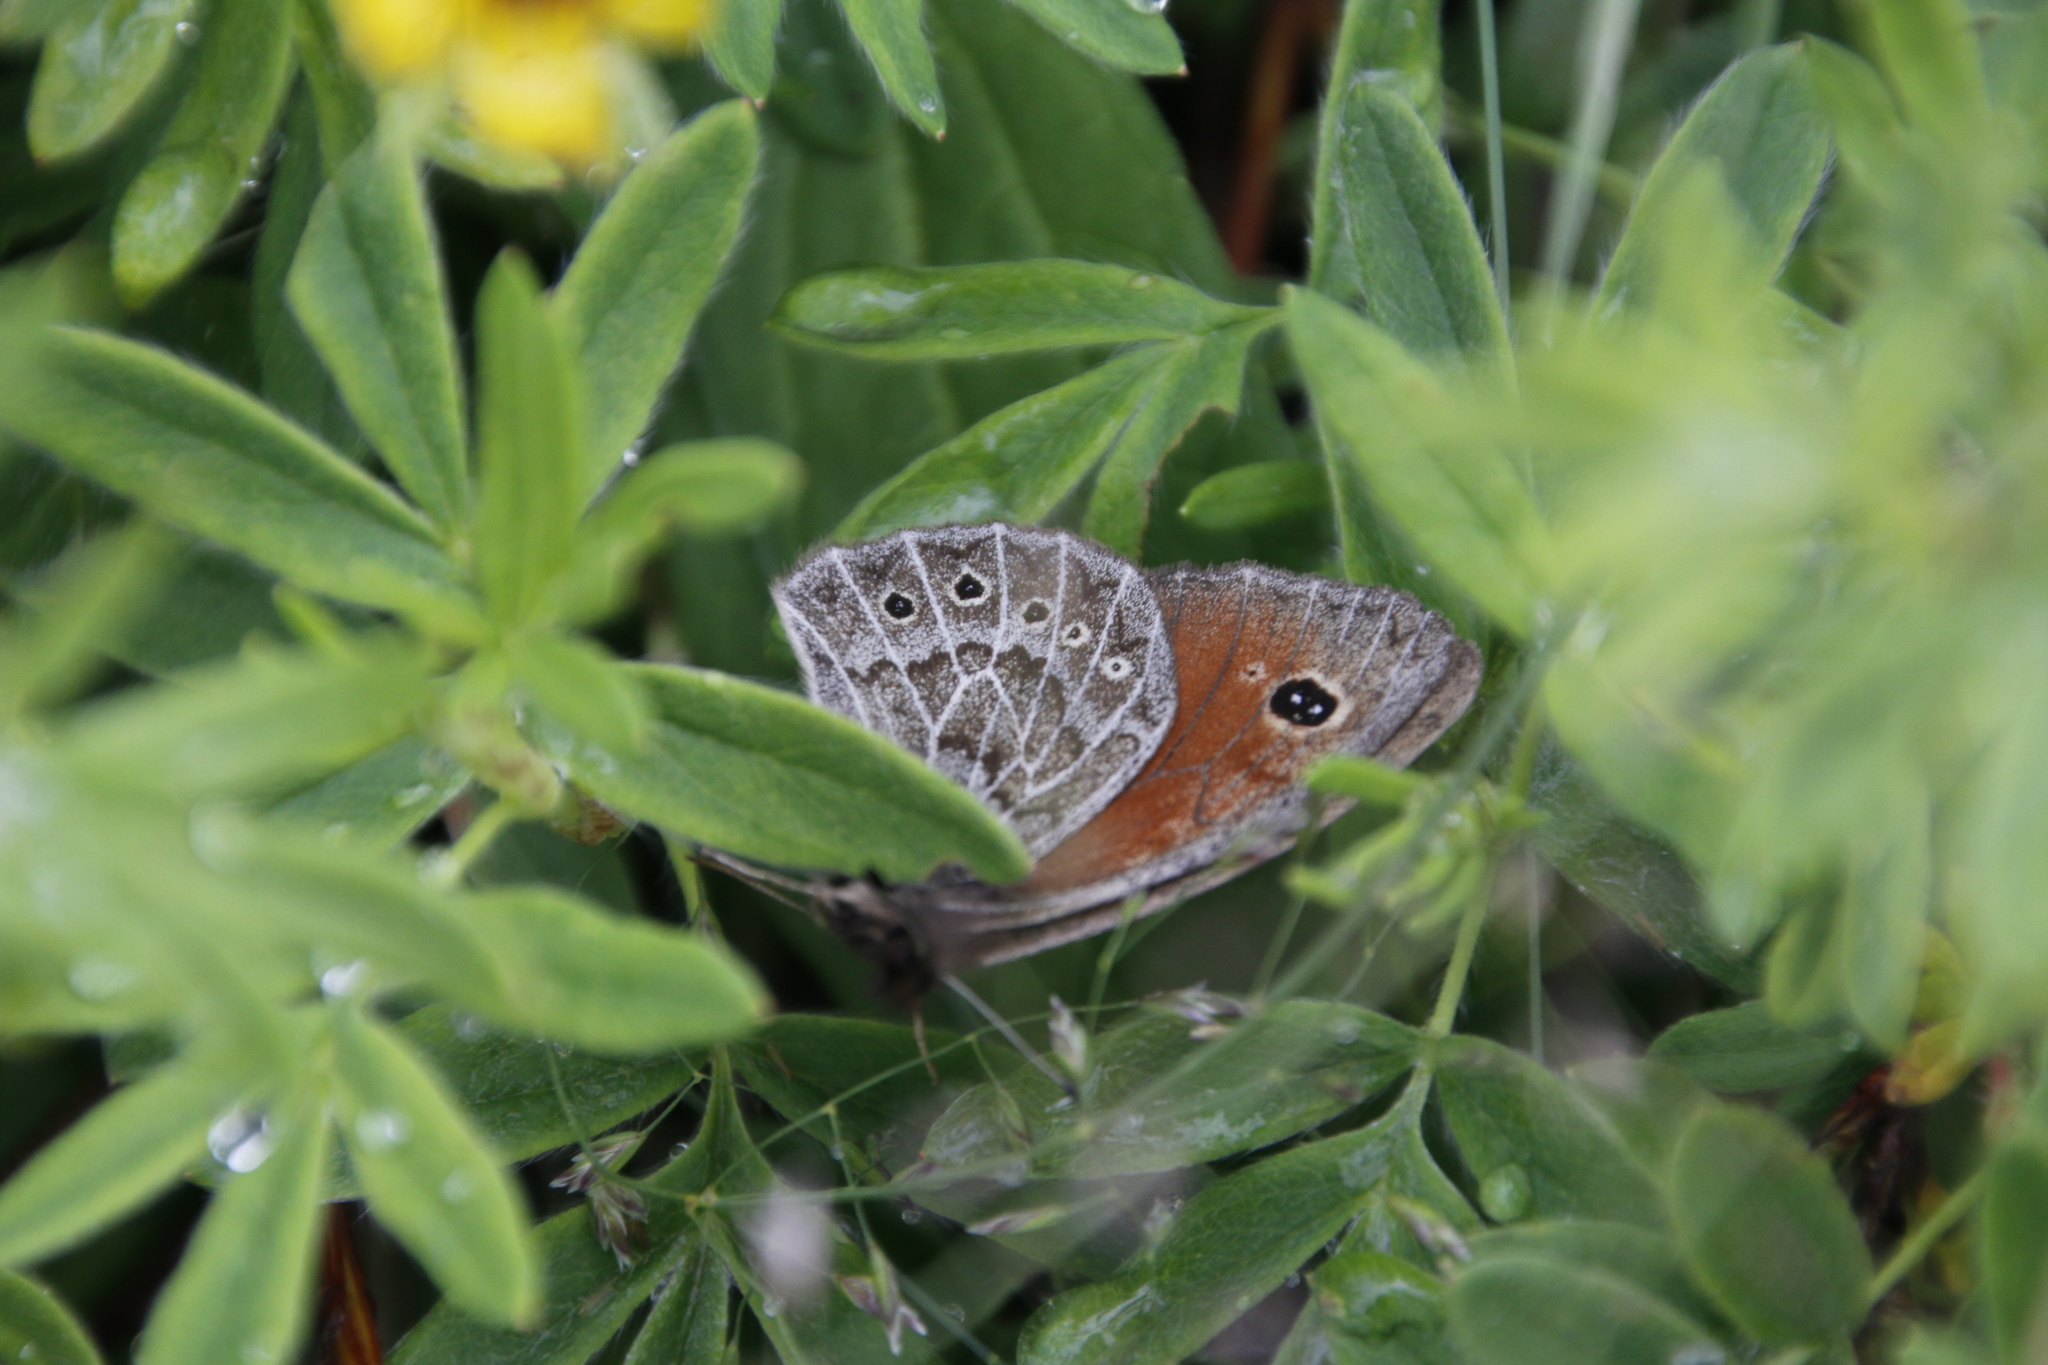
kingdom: Animalia
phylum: Arthropoda
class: Insecta
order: Lepidoptera
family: Nymphalidae
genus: Erebia
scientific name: Erebia Boeberia parmenio
